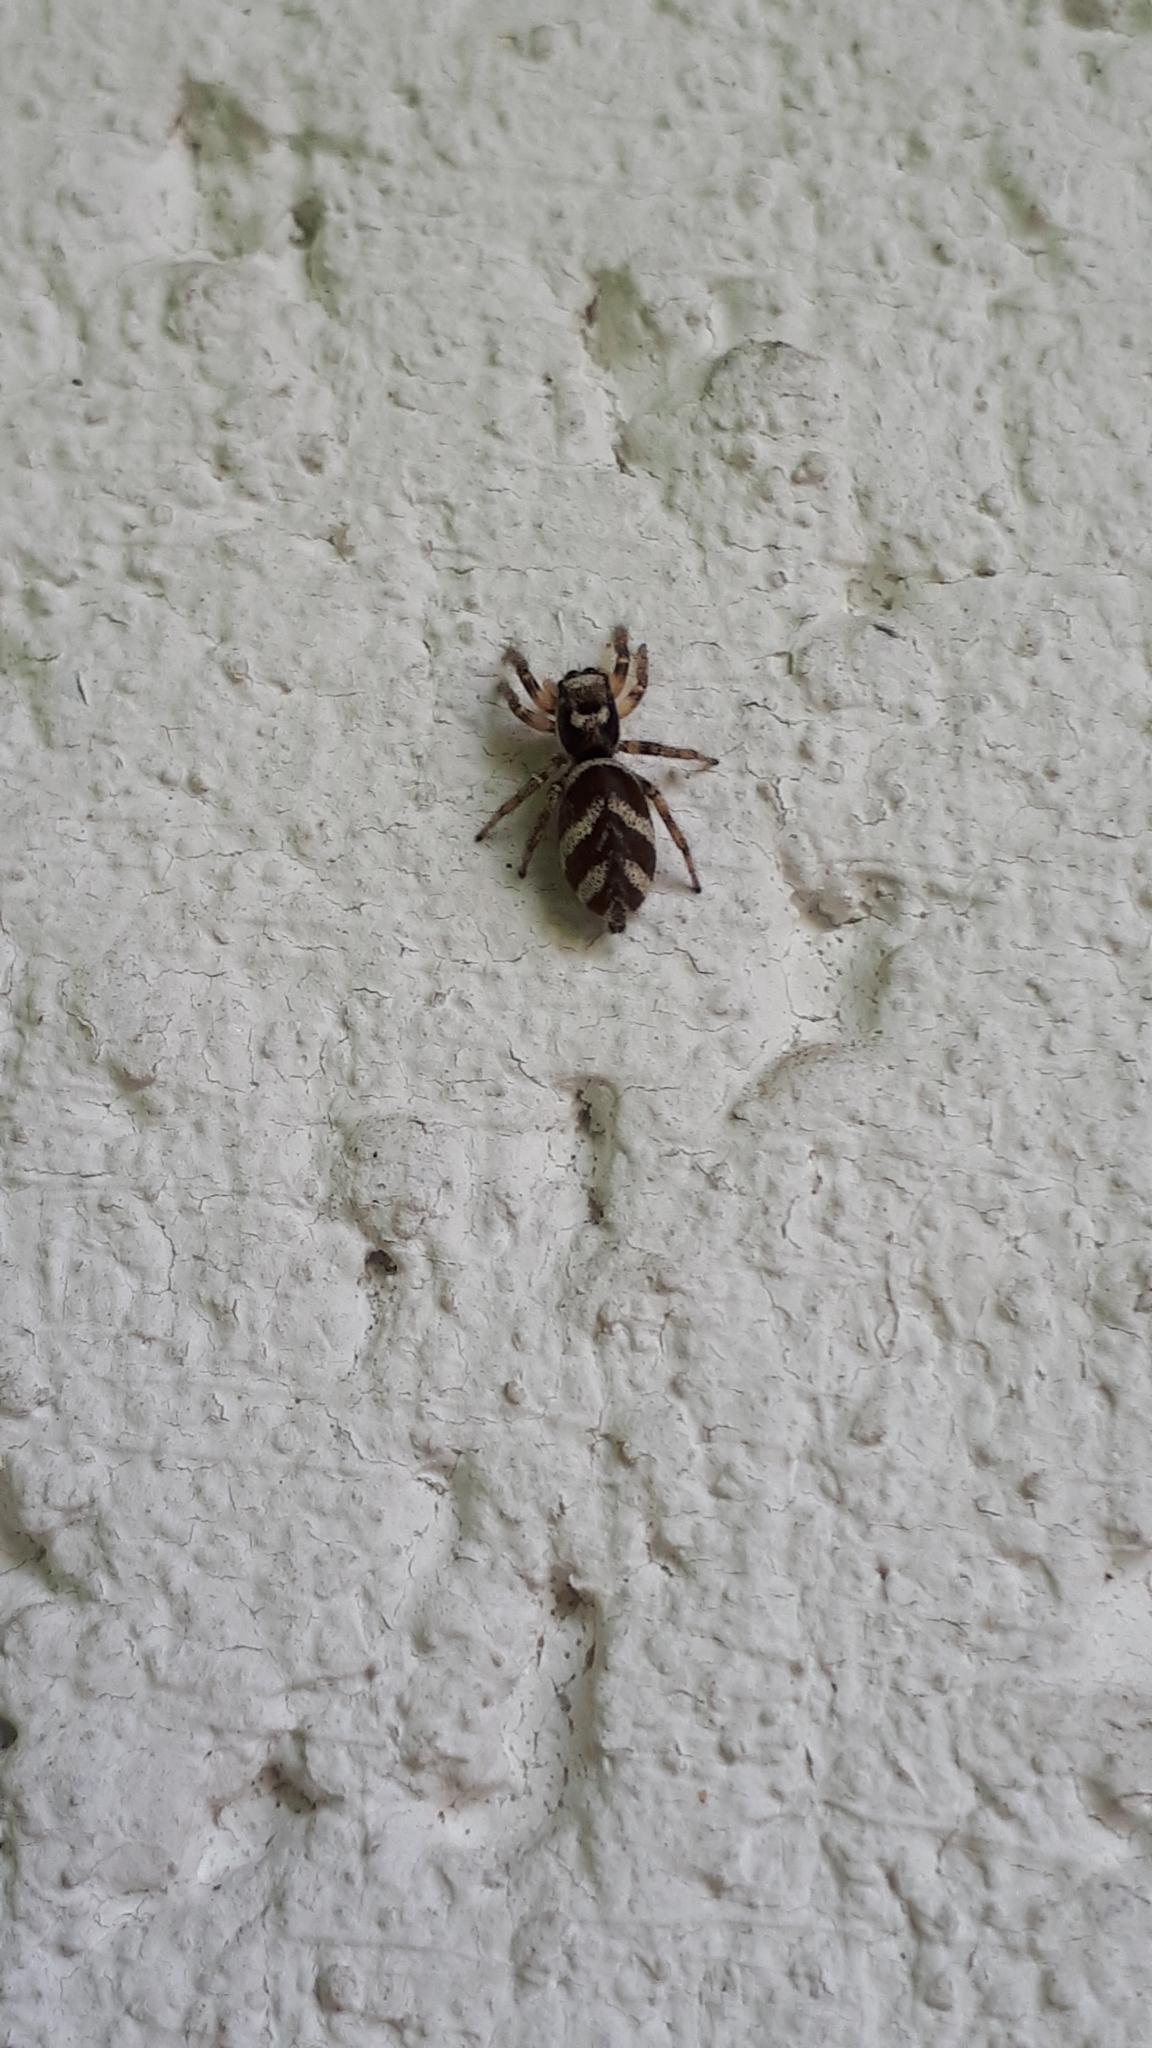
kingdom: Animalia
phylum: Arthropoda
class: Arachnida
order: Araneae
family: Salticidae
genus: Salticus
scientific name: Salticus scenicus
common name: Zebra jumper
